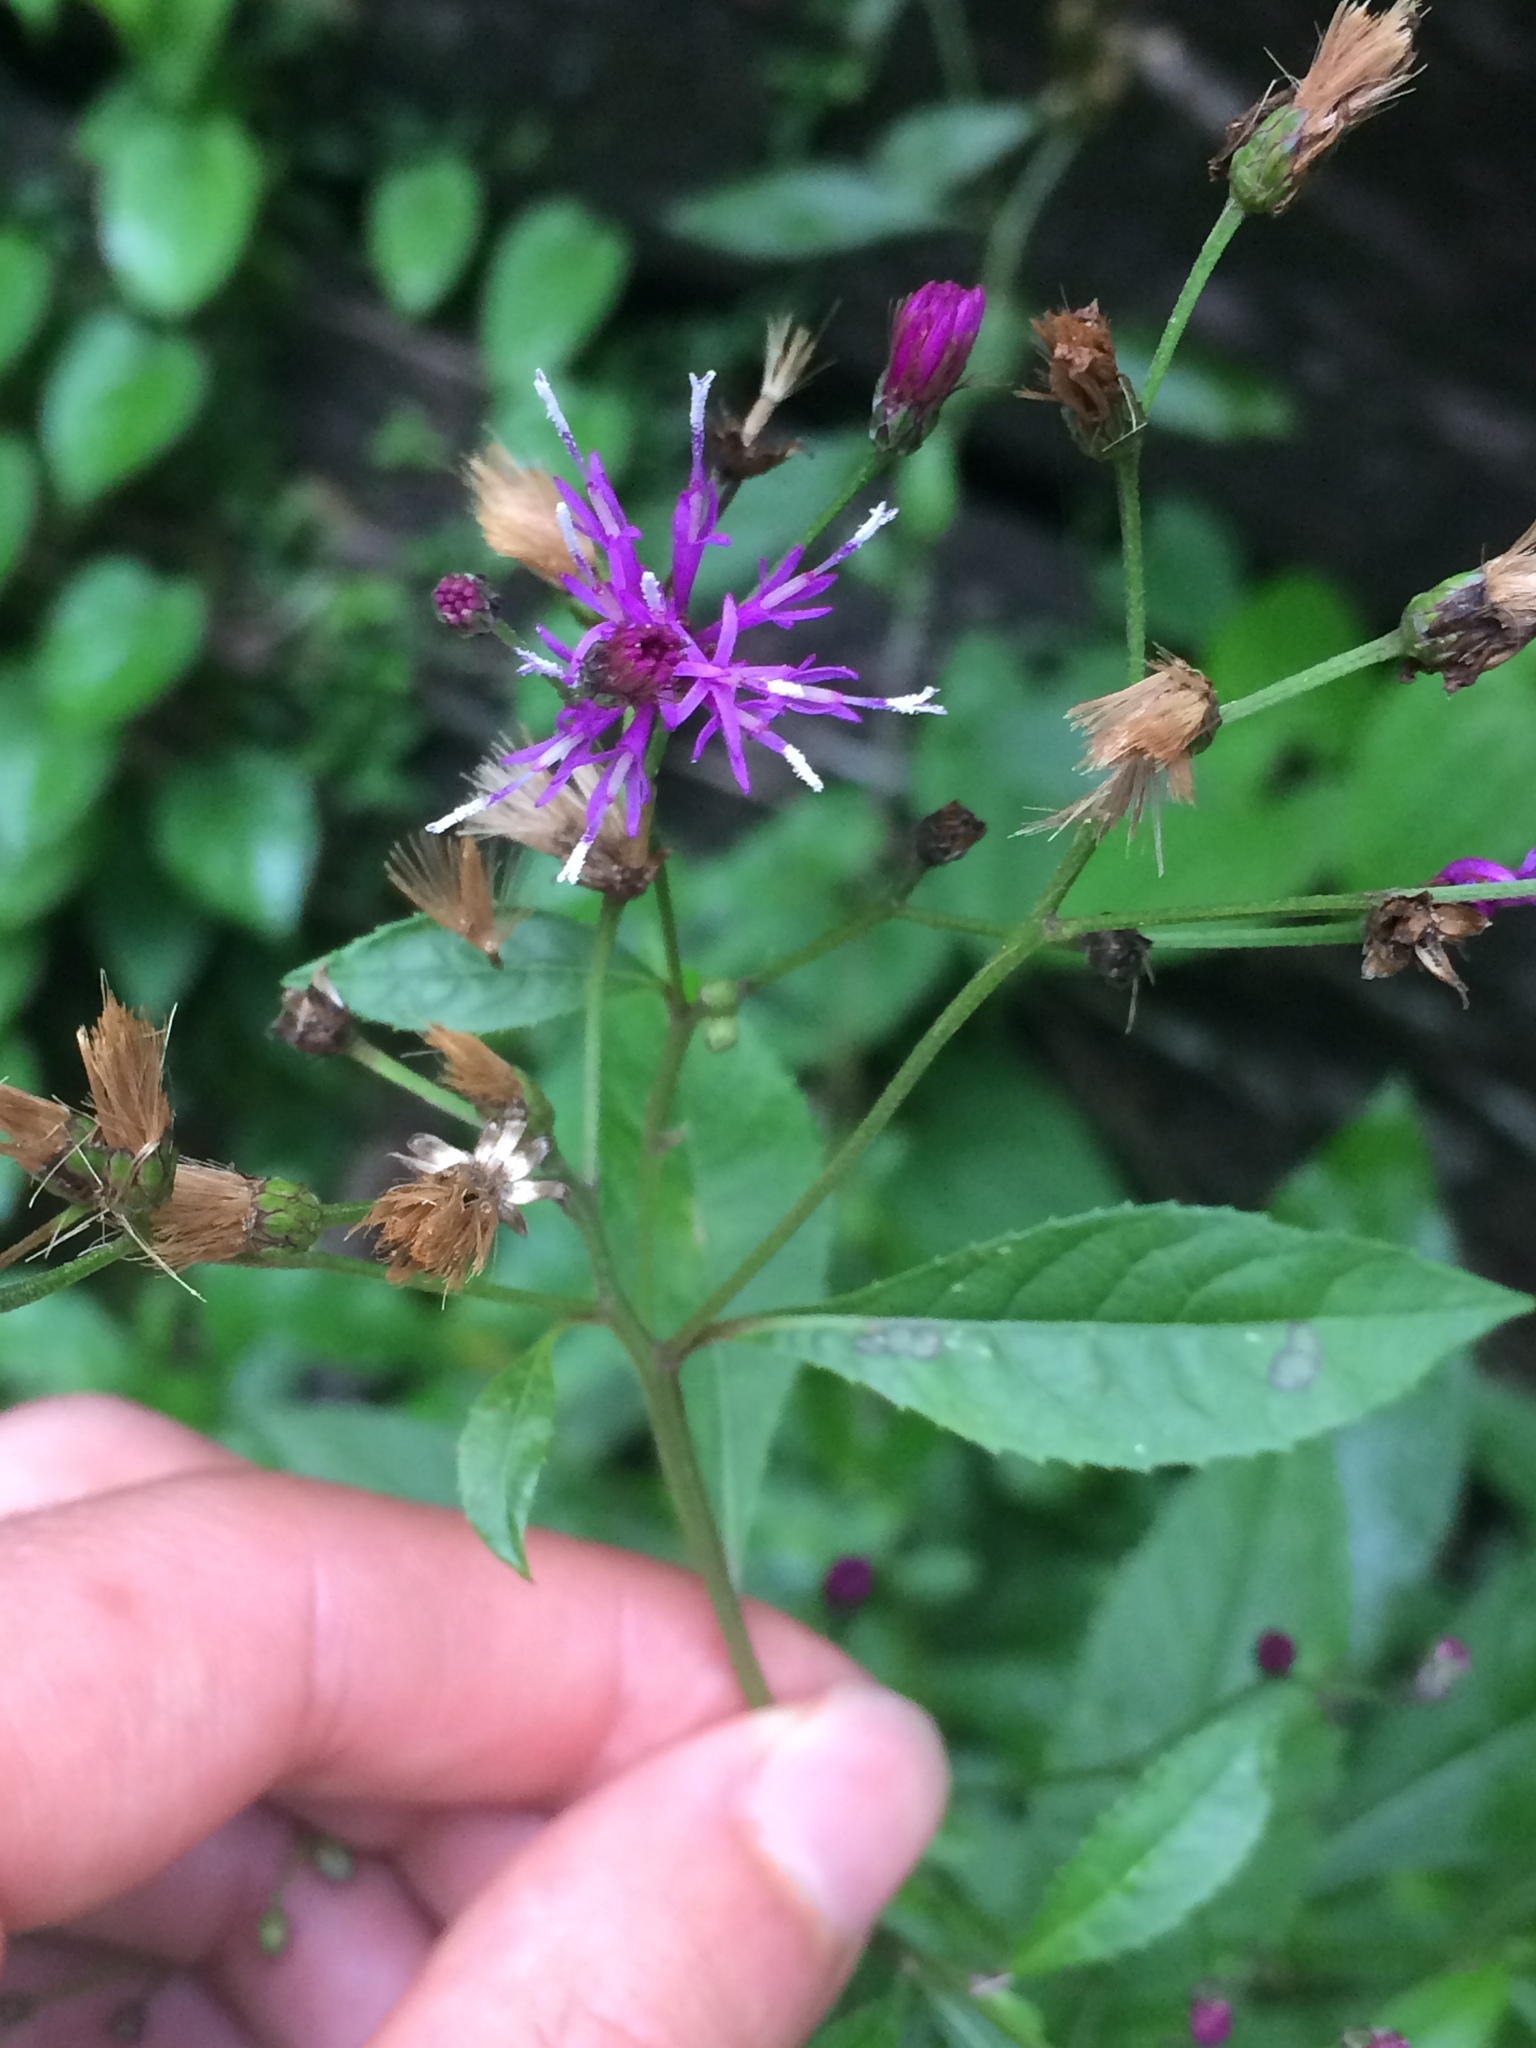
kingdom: Plantae
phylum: Tracheophyta
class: Magnoliopsida
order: Asterales
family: Asteraceae
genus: Vernonia
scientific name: Vernonia gigantea
